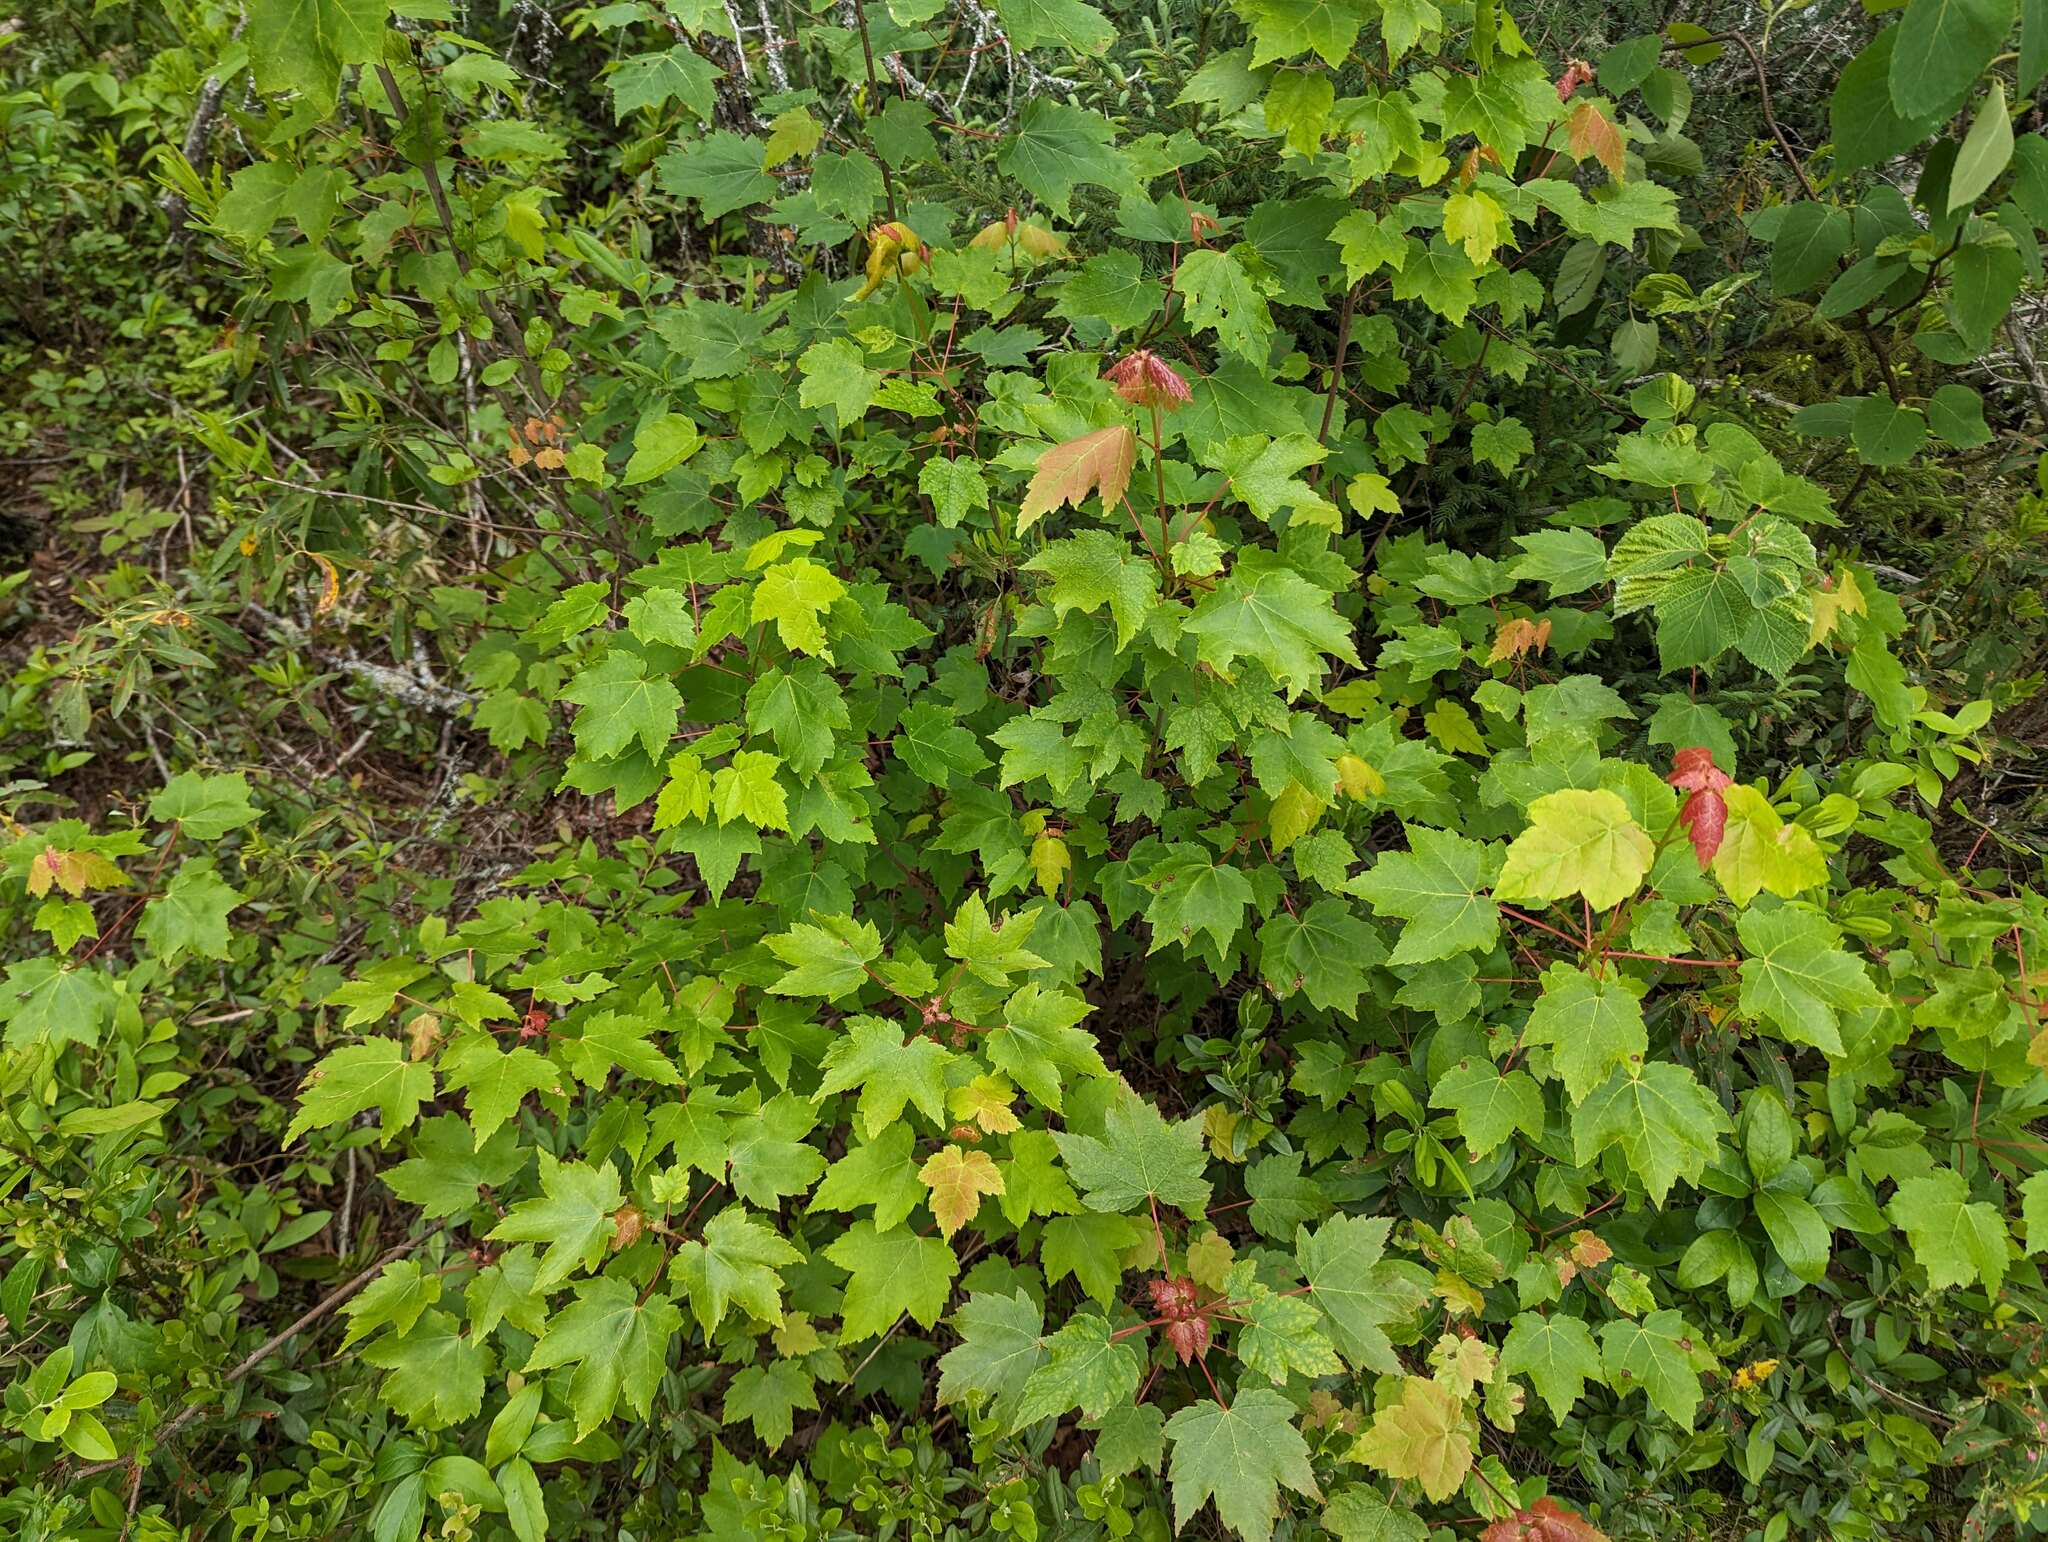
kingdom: Plantae
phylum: Tracheophyta
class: Magnoliopsida
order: Sapindales
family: Sapindaceae
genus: Acer
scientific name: Acer rubrum
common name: Red maple
